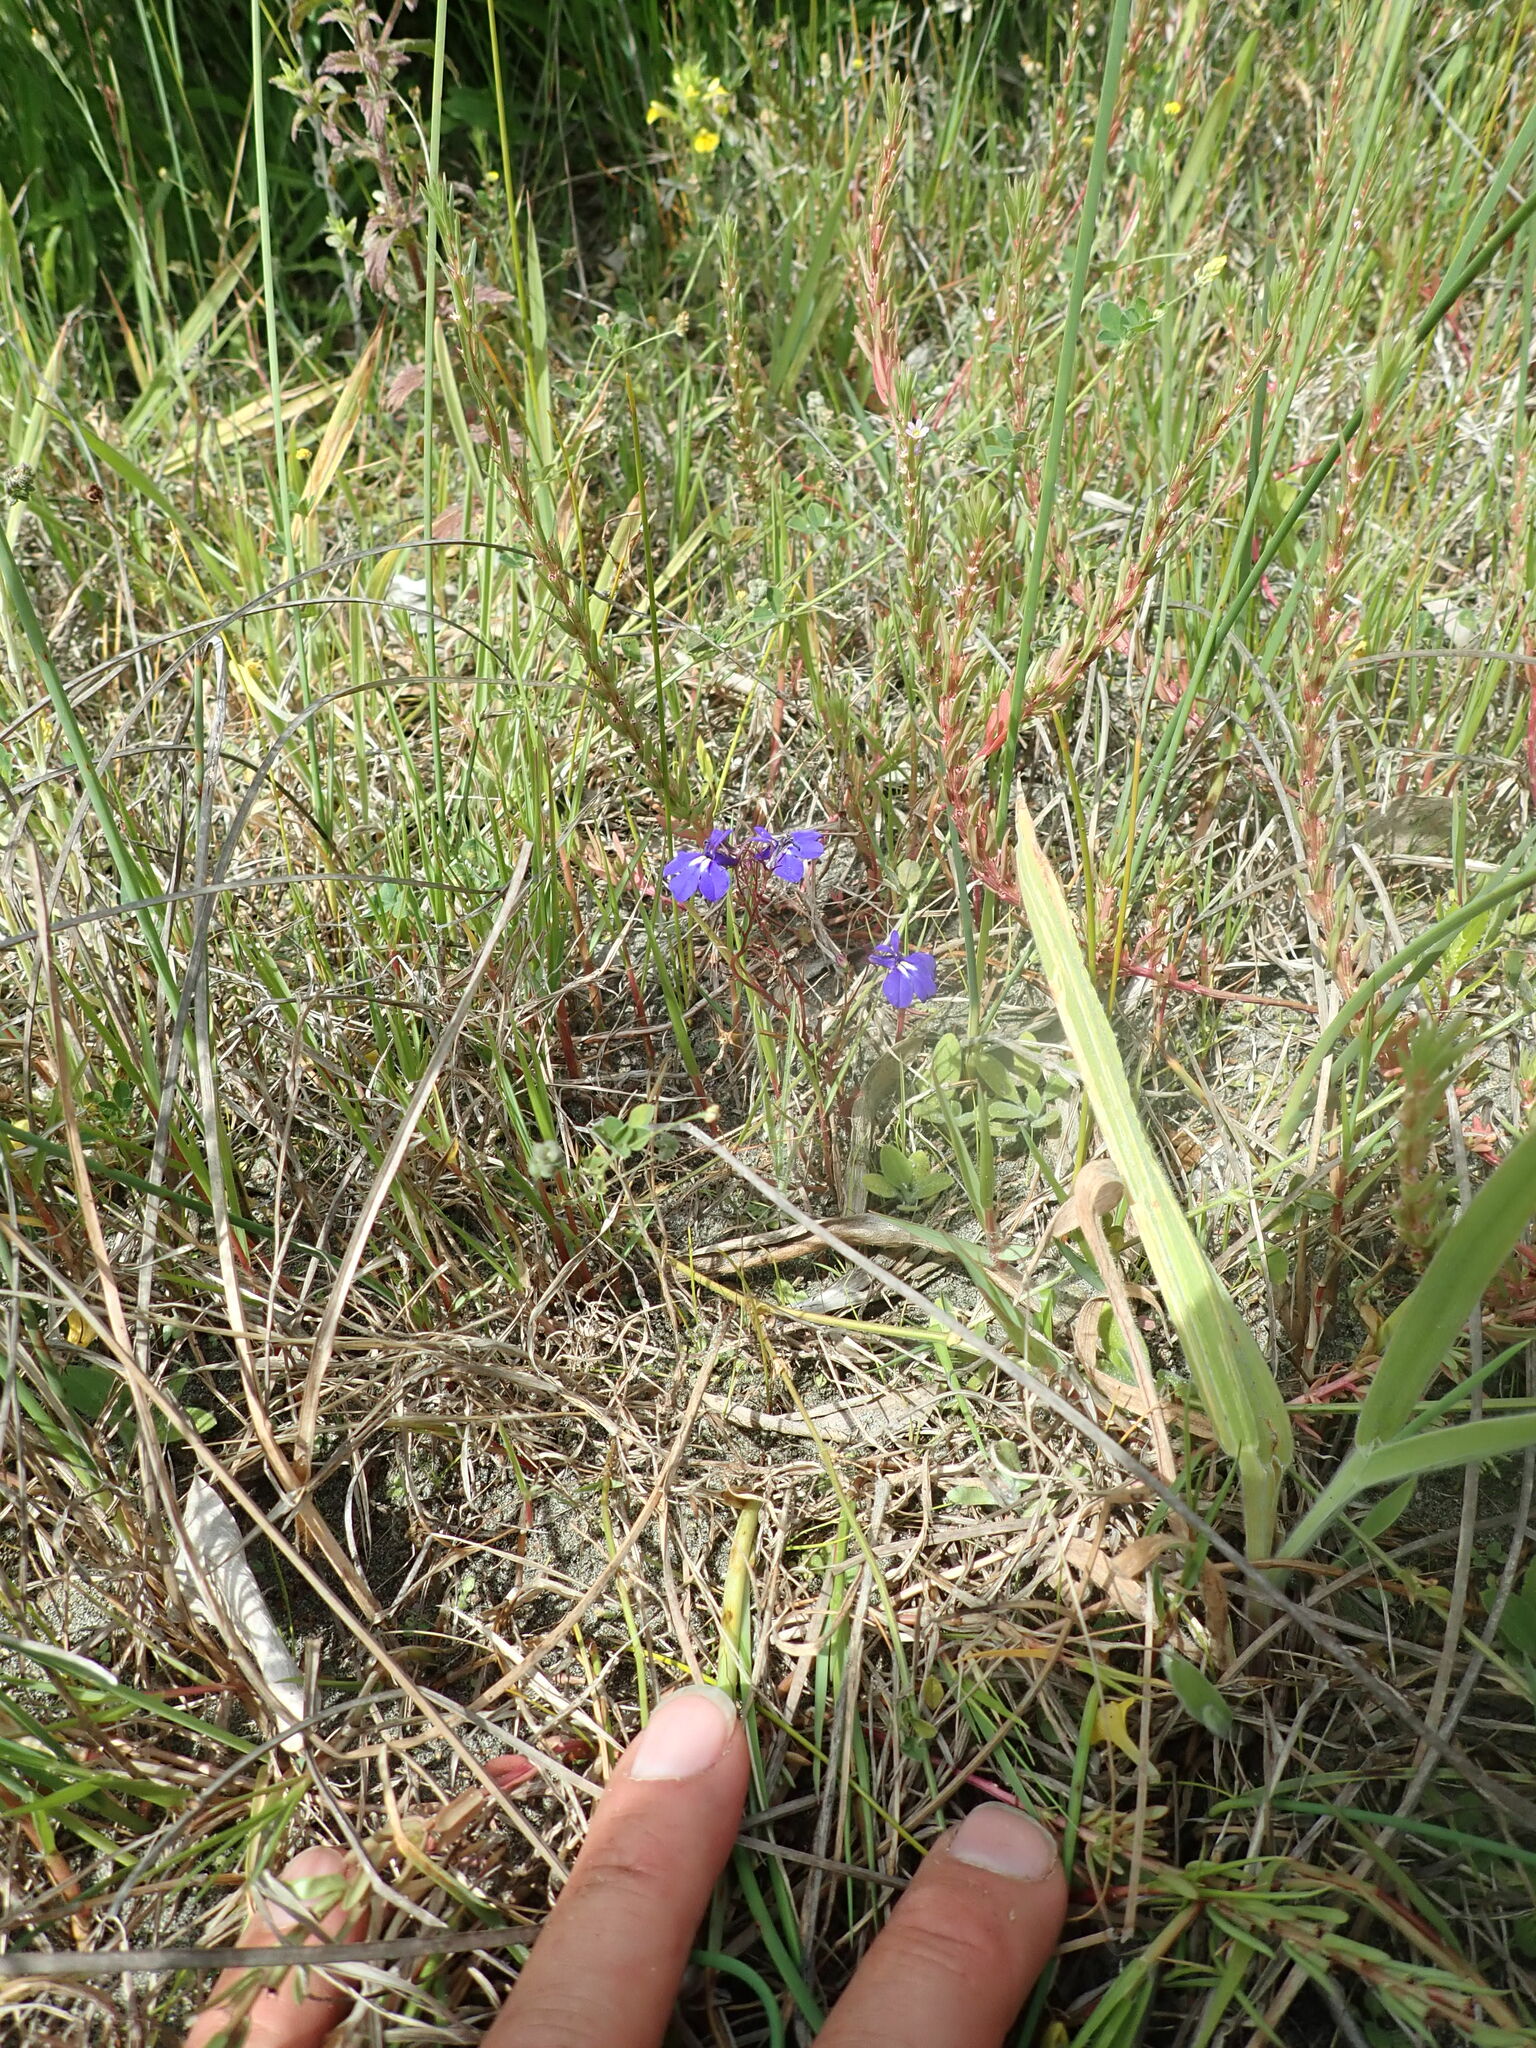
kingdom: Plantae
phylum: Tracheophyta
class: Magnoliopsida
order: Asterales
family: Campanulaceae
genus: Lobelia
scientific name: Lobelia erinus
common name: Edging lobelia
